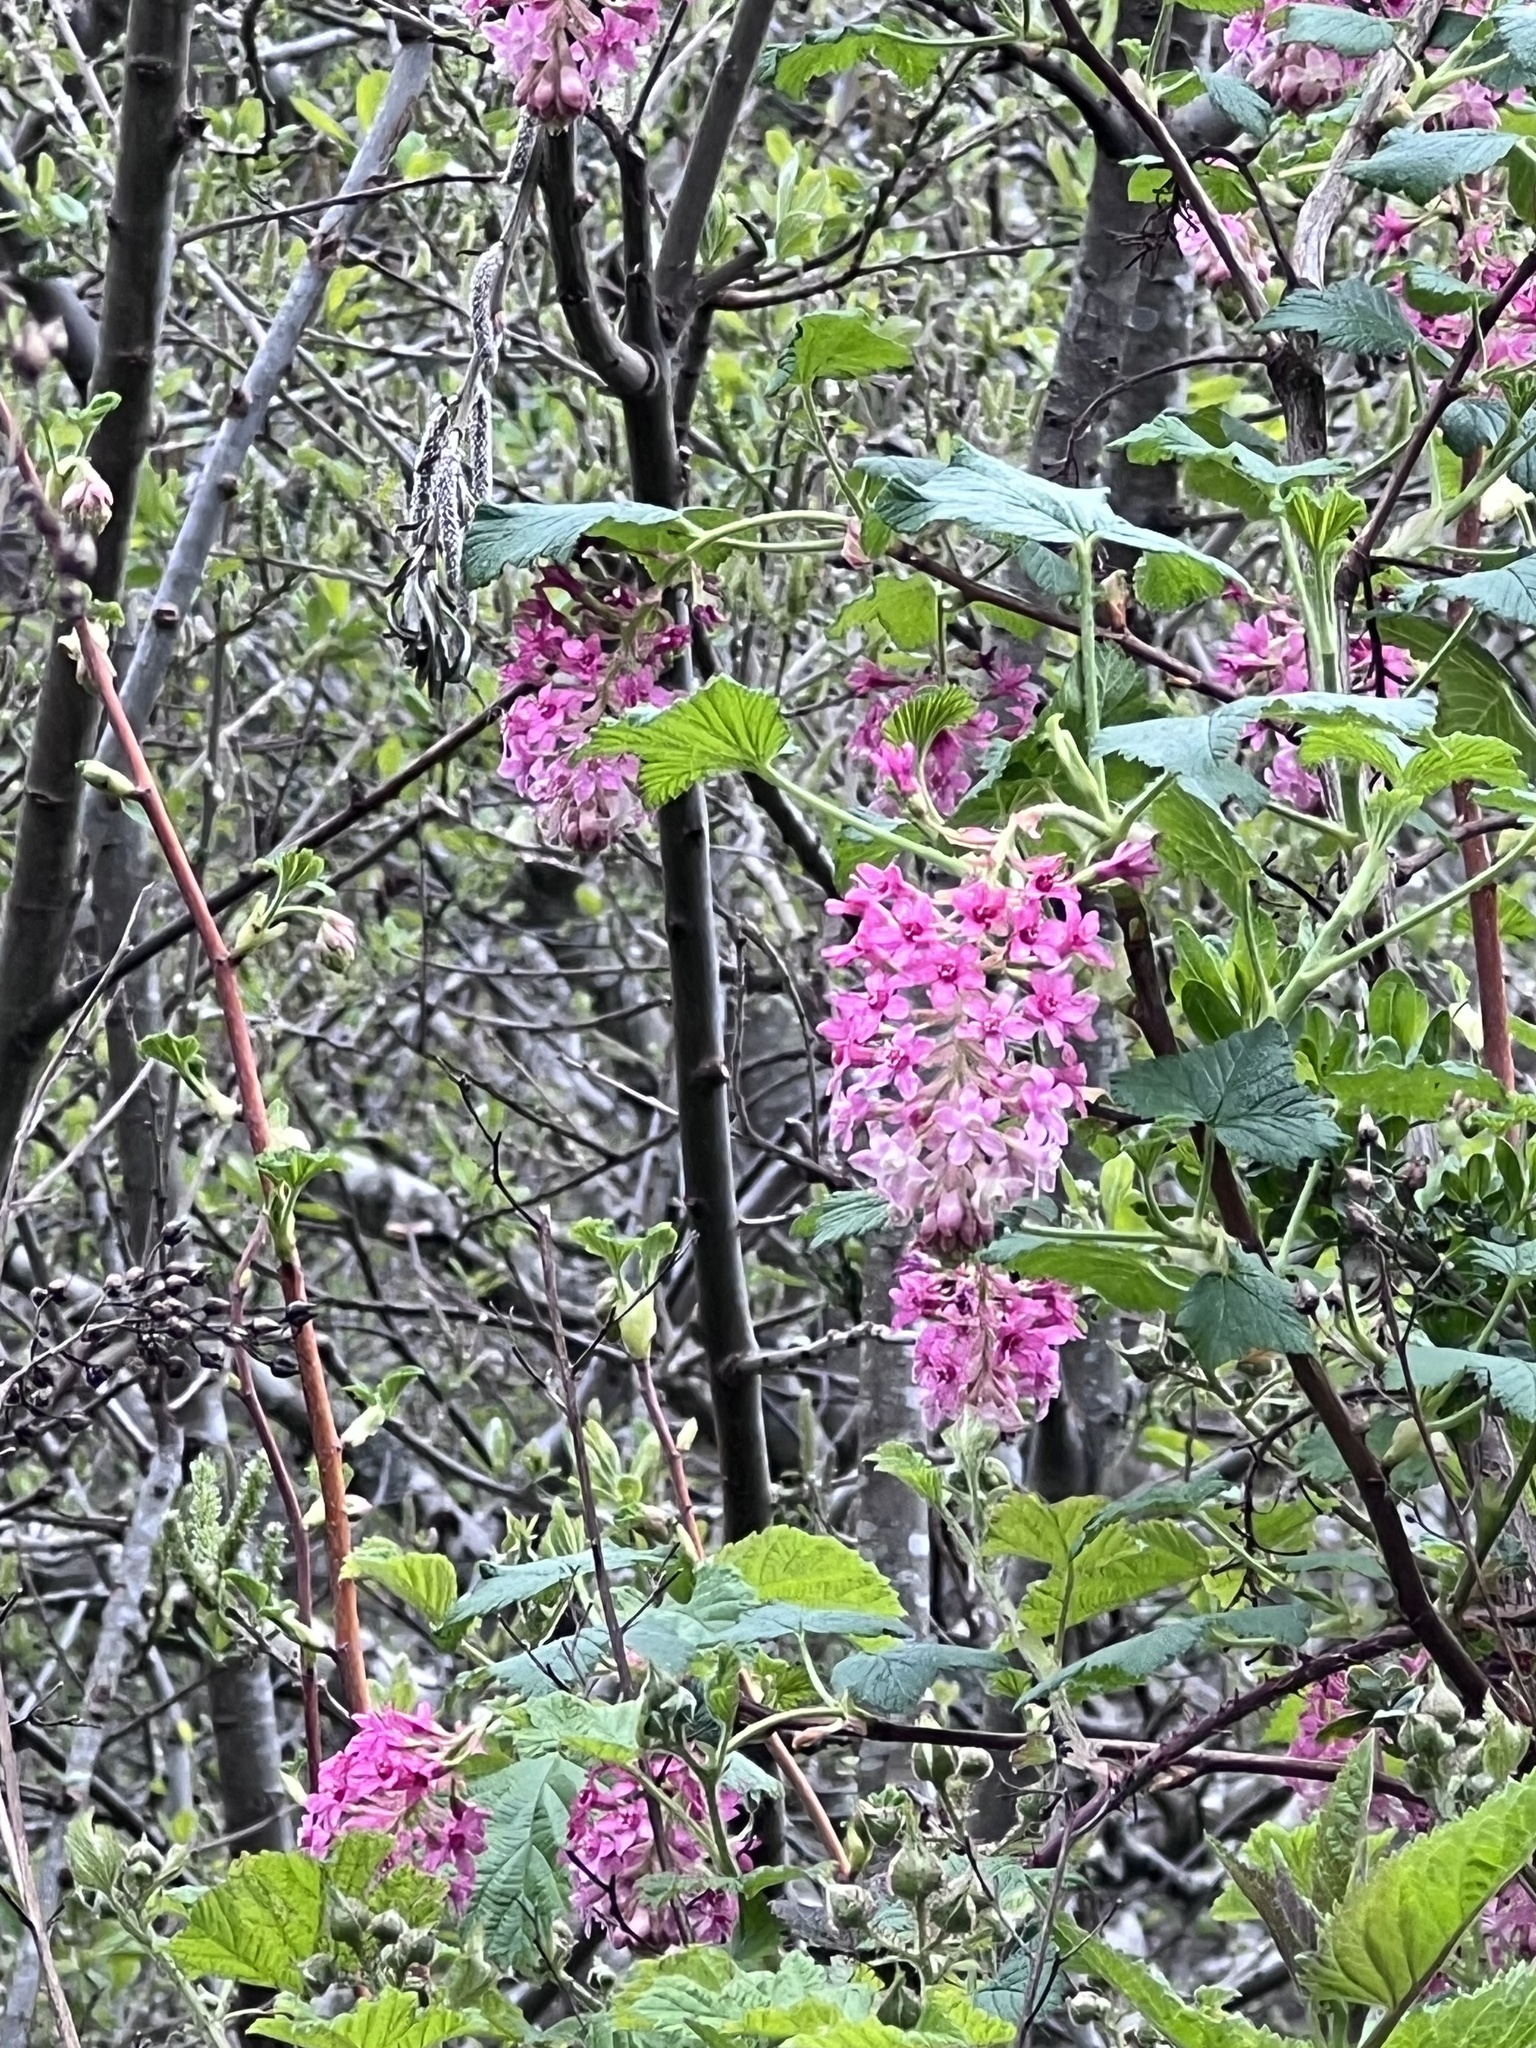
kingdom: Plantae
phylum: Tracheophyta
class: Magnoliopsida
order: Saxifragales
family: Grossulariaceae
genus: Ribes
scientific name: Ribes sanguineum
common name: Flowering currant
